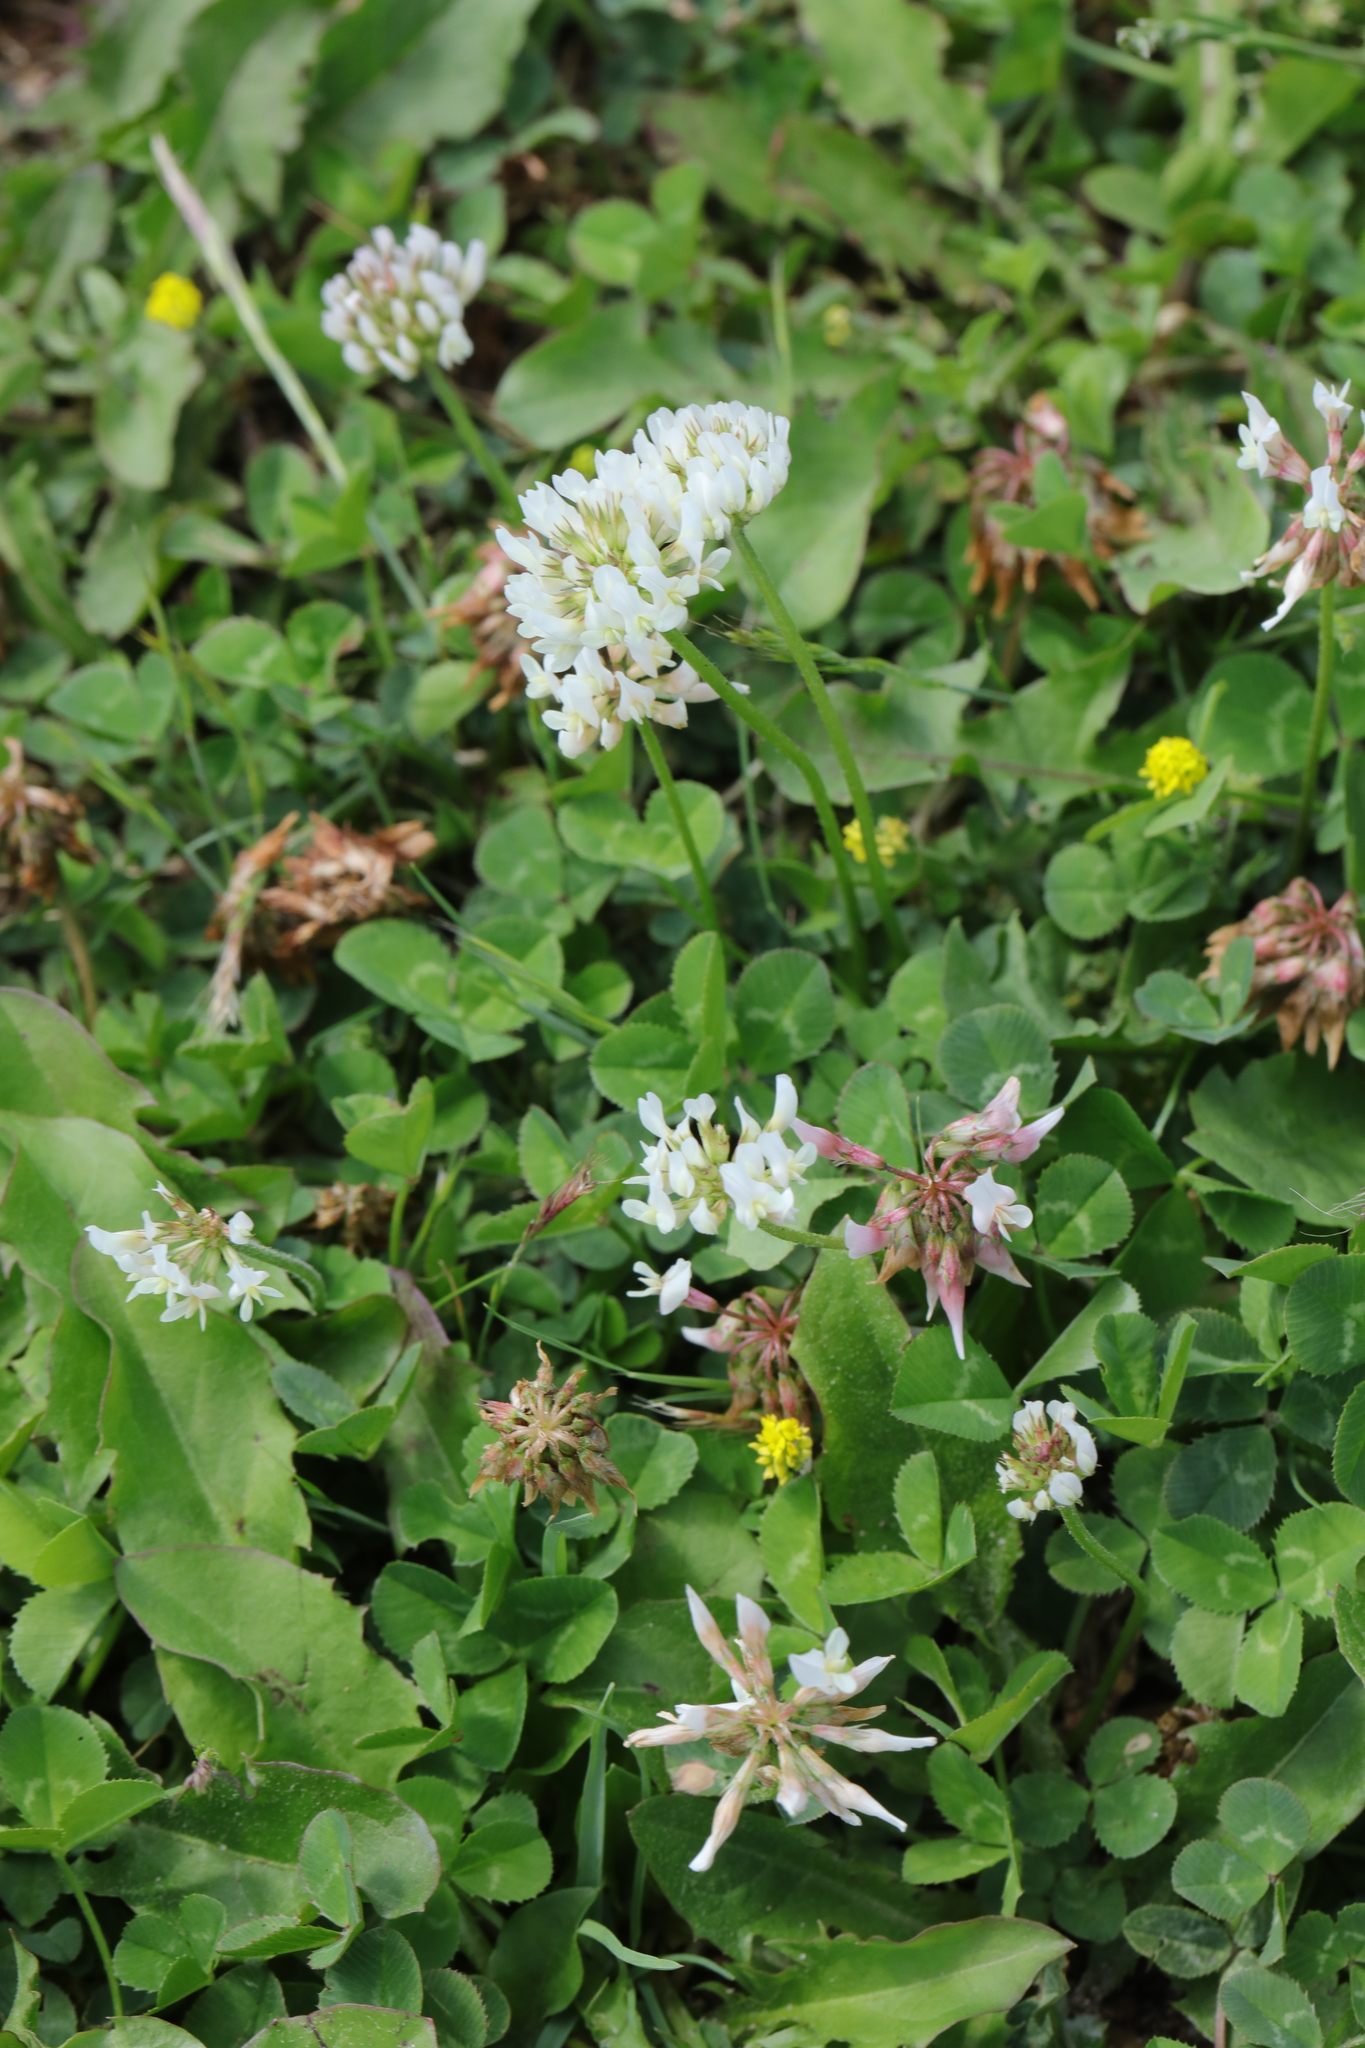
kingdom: Plantae
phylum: Tracheophyta
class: Magnoliopsida
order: Fabales
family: Fabaceae
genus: Trifolium
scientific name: Trifolium repens
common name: White clover
